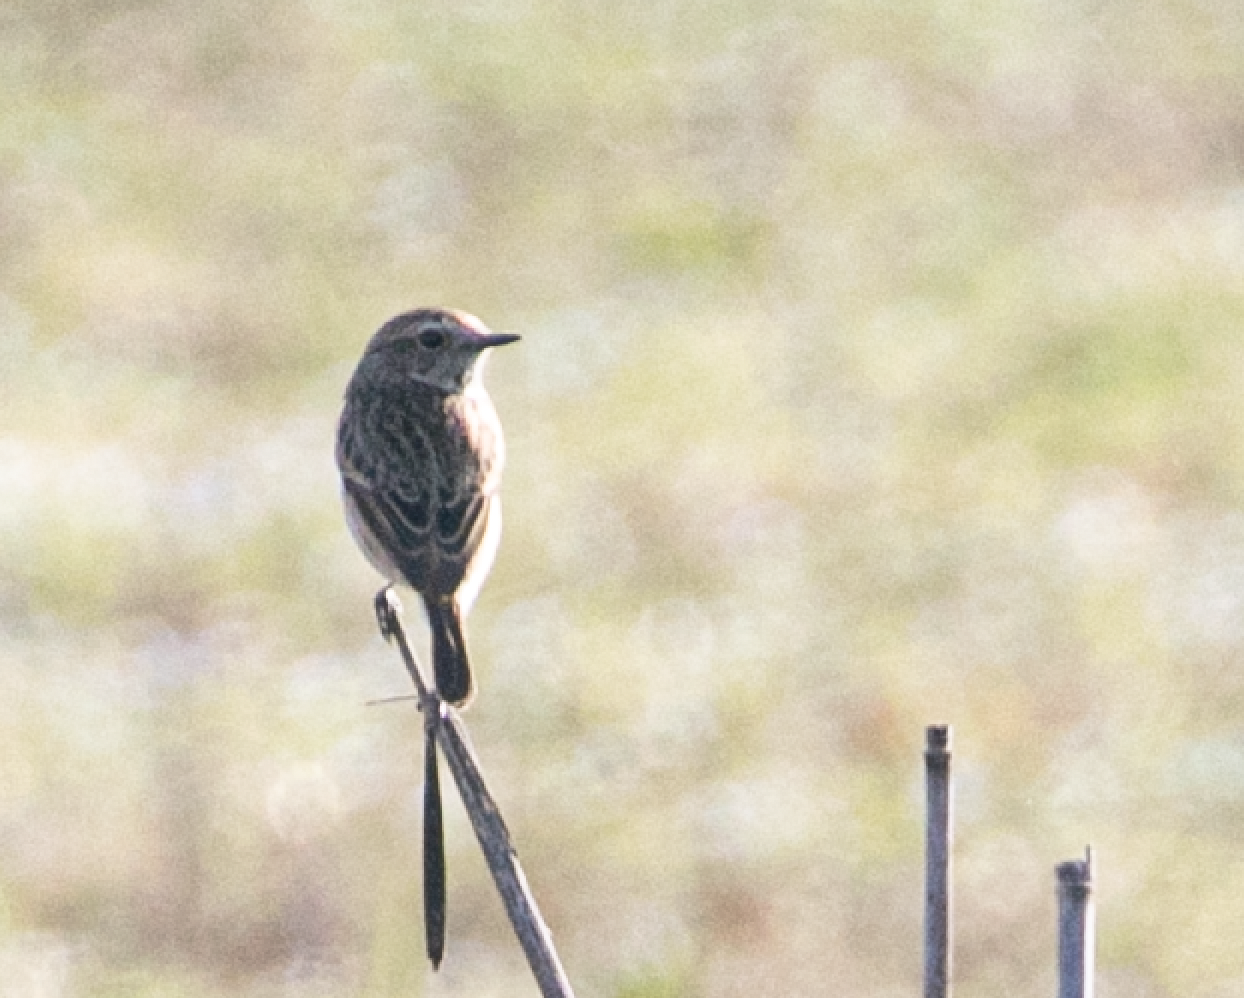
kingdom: Animalia
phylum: Chordata
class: Aves
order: Passeriformes
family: Muscicapidae
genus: Saxicola
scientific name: Saxicola rubicola
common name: European stonechat
